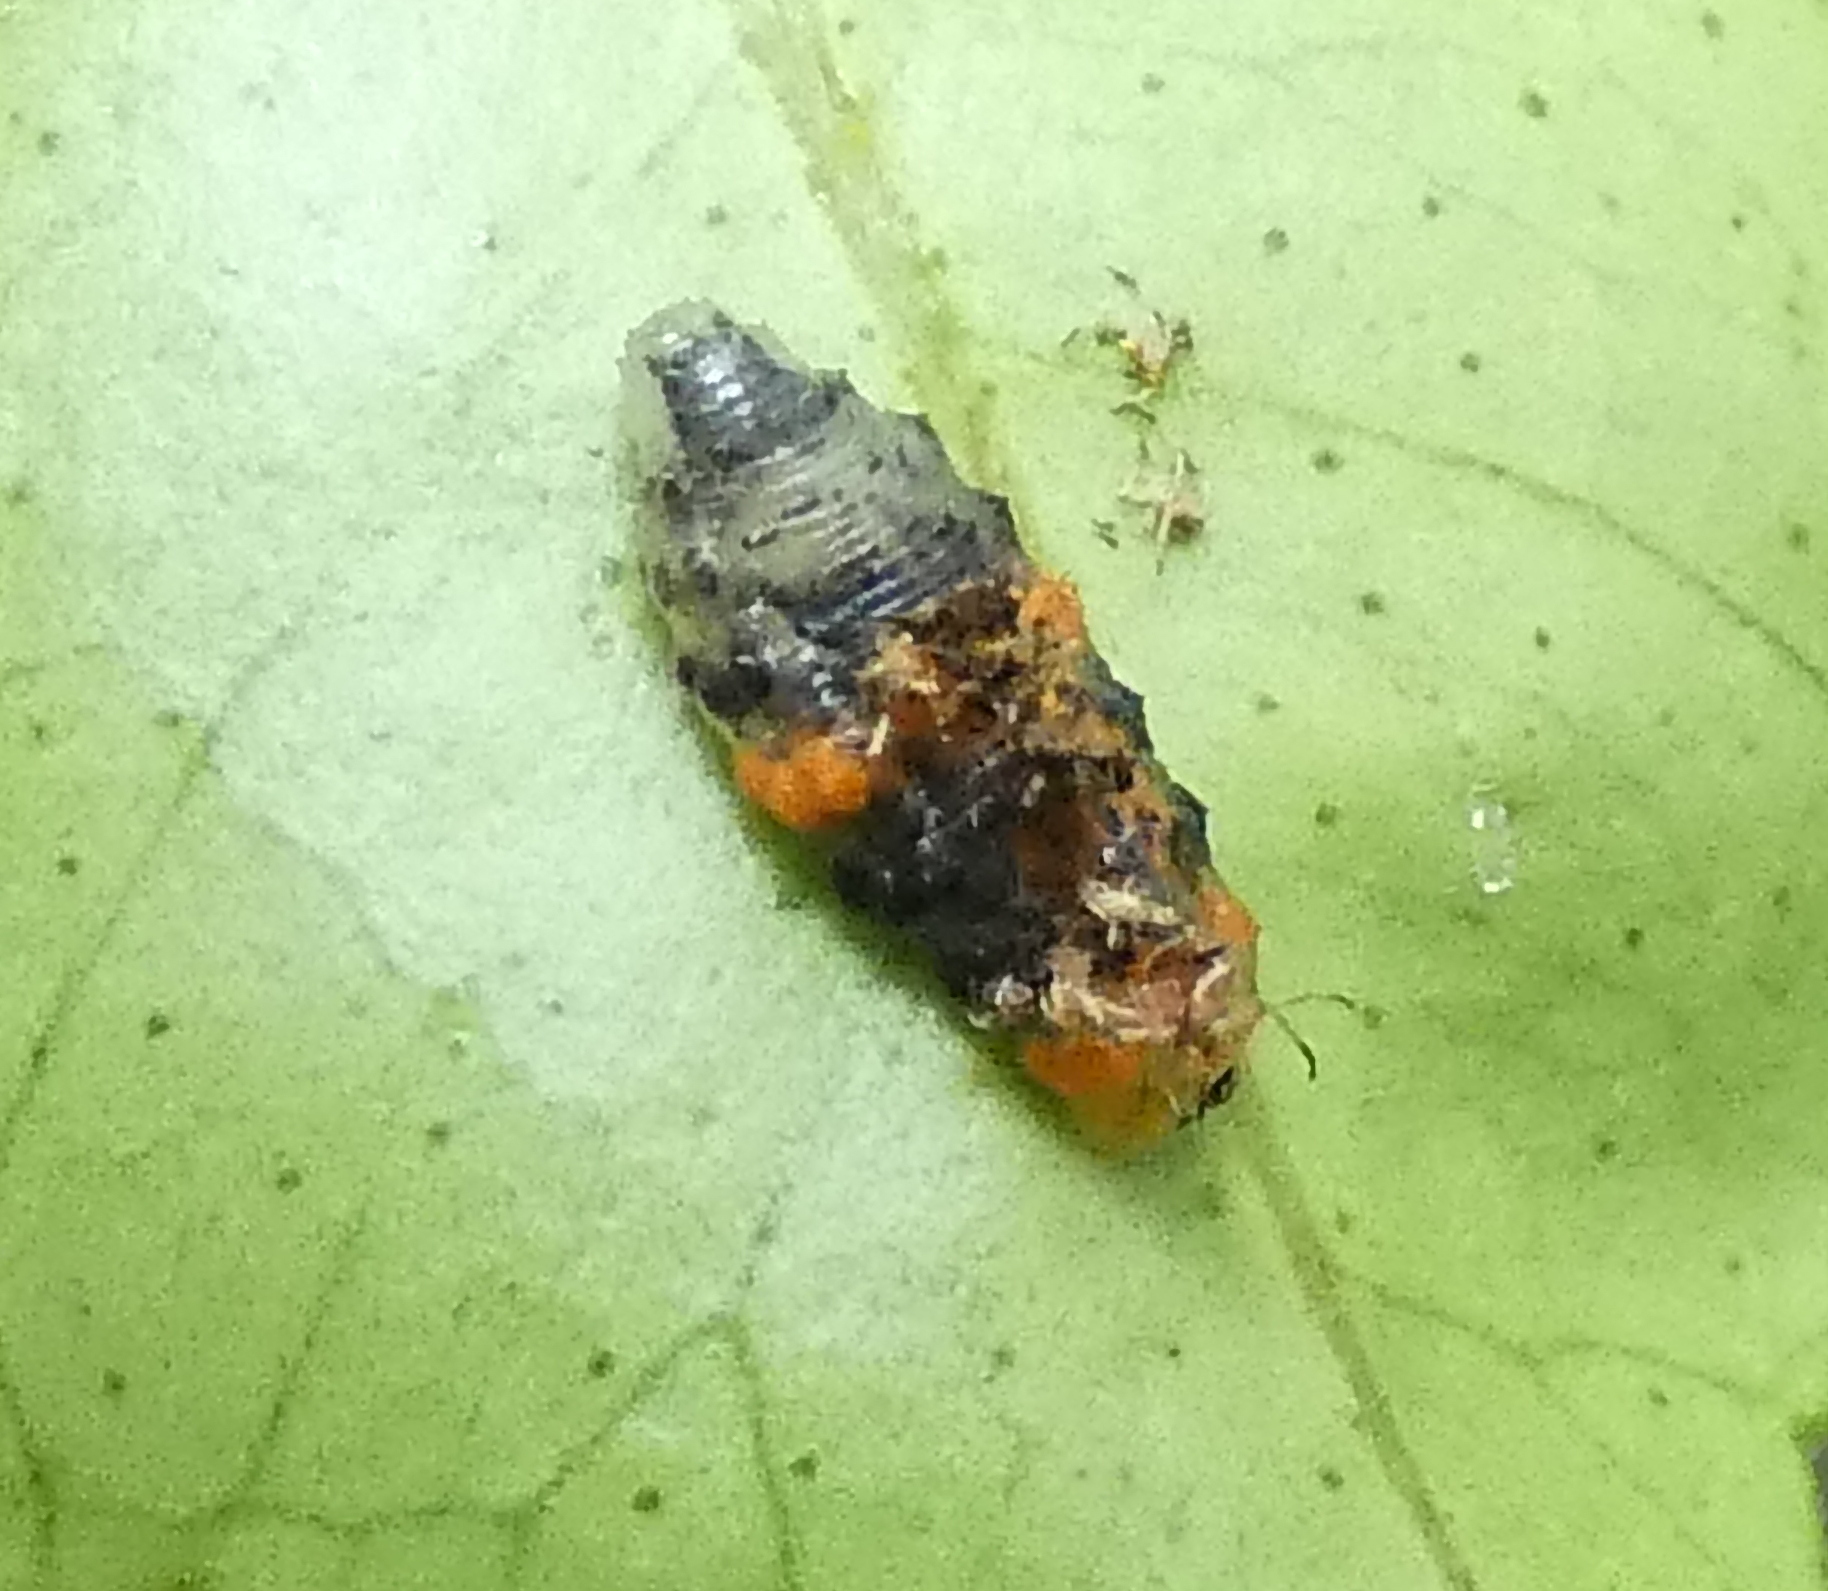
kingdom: Animalia
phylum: Arthropoda
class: Insecta
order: Diptera
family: Syrphidae
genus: Ocyptamus
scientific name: Ocyptamus gastrostactus
